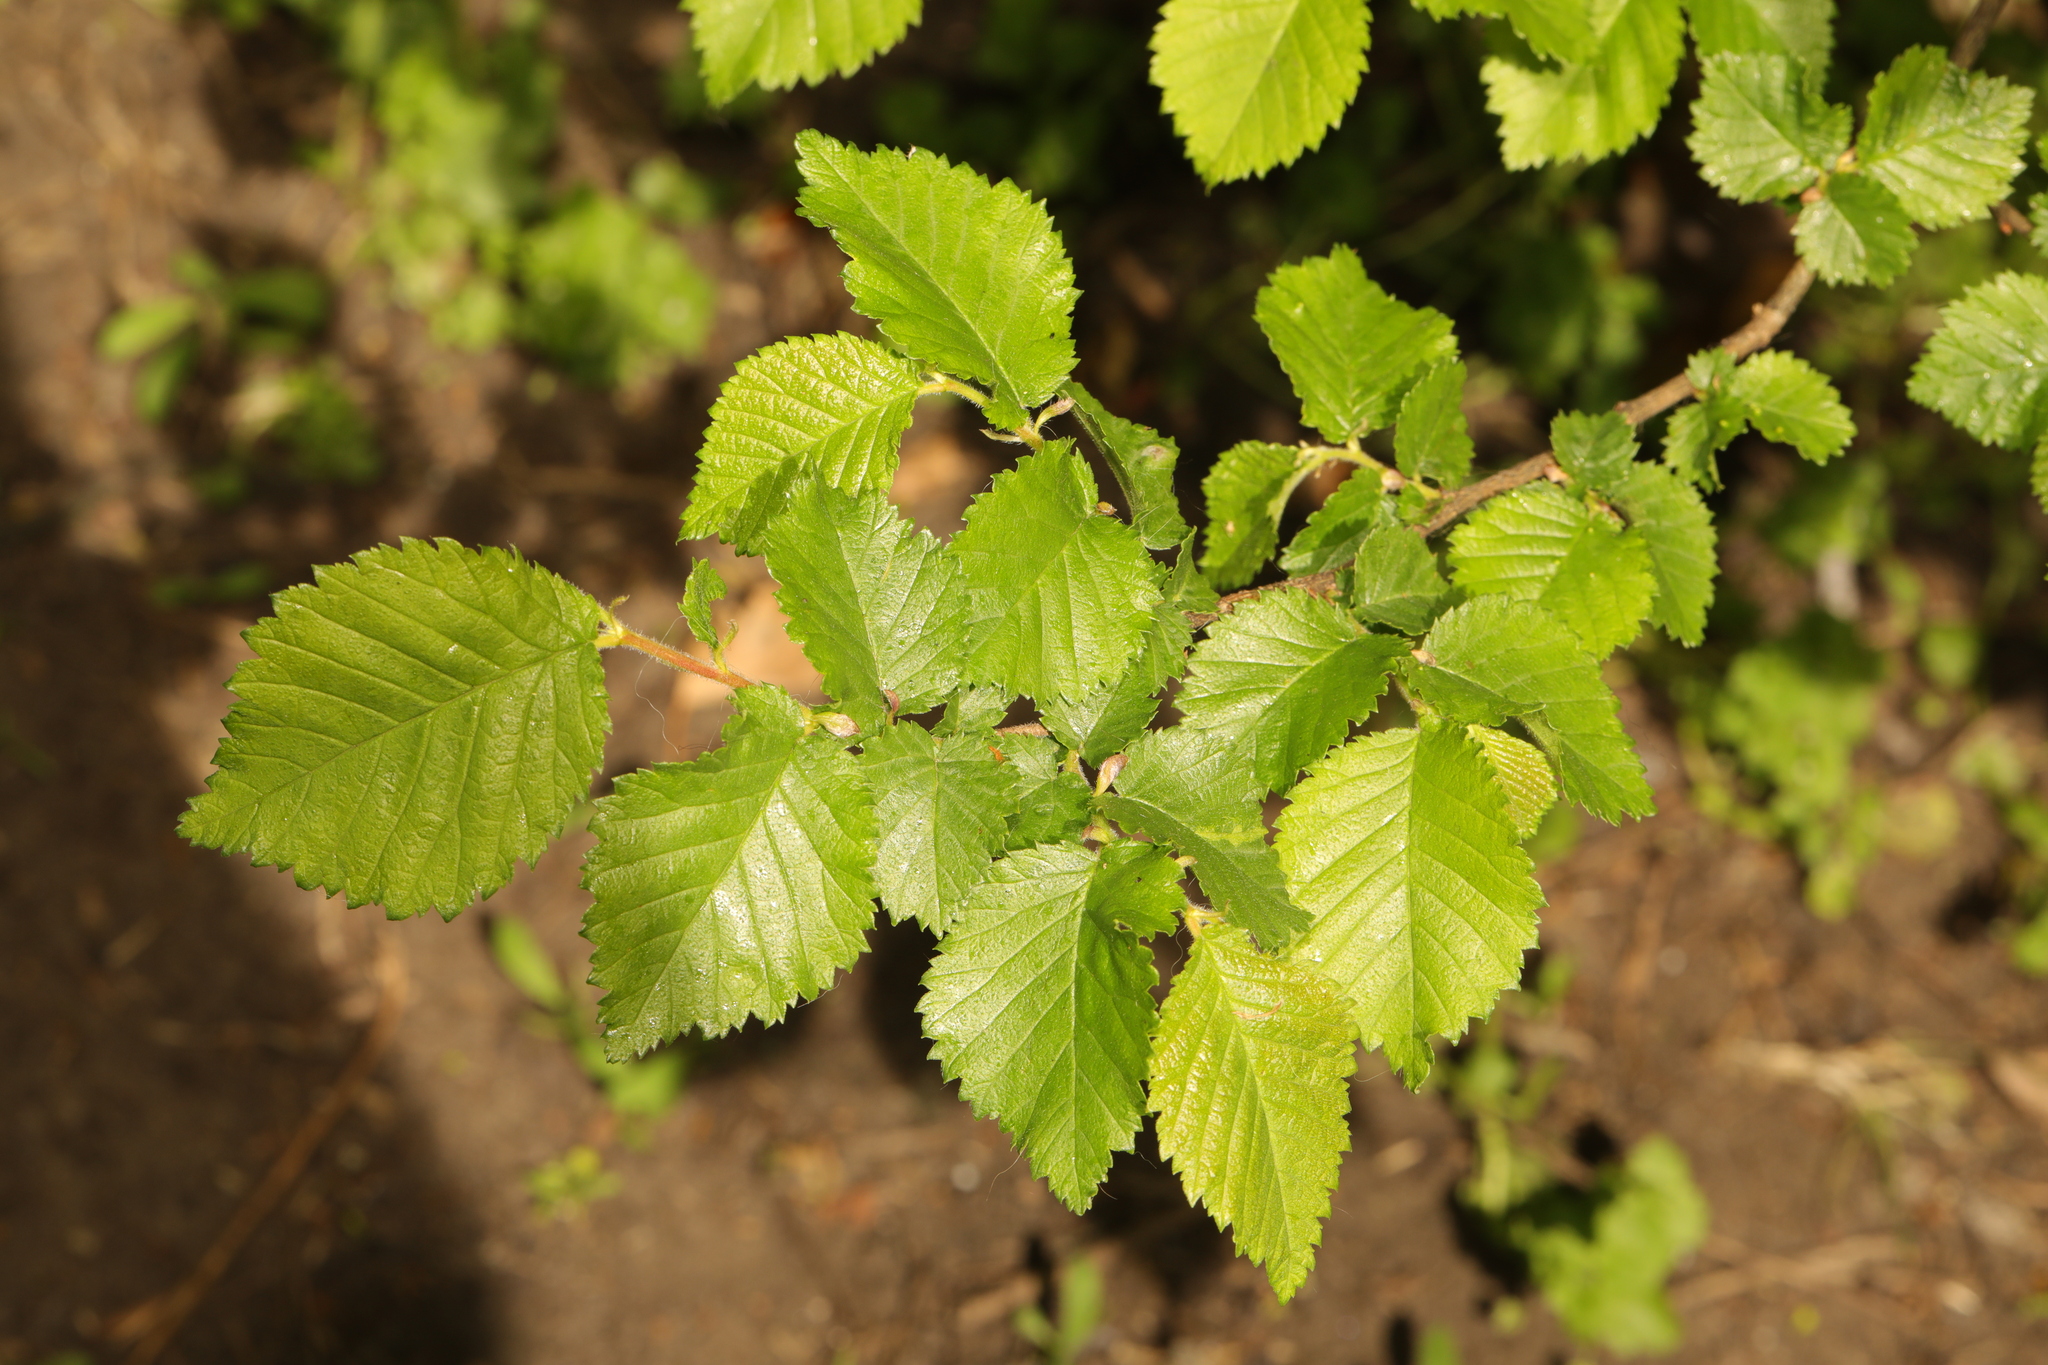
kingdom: Plantae
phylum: Tracheophyta
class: Magnoliopsida
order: Rosales
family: Ulmaceae
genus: Ulmus
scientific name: Ulmus minor
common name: Small-leaved elm
